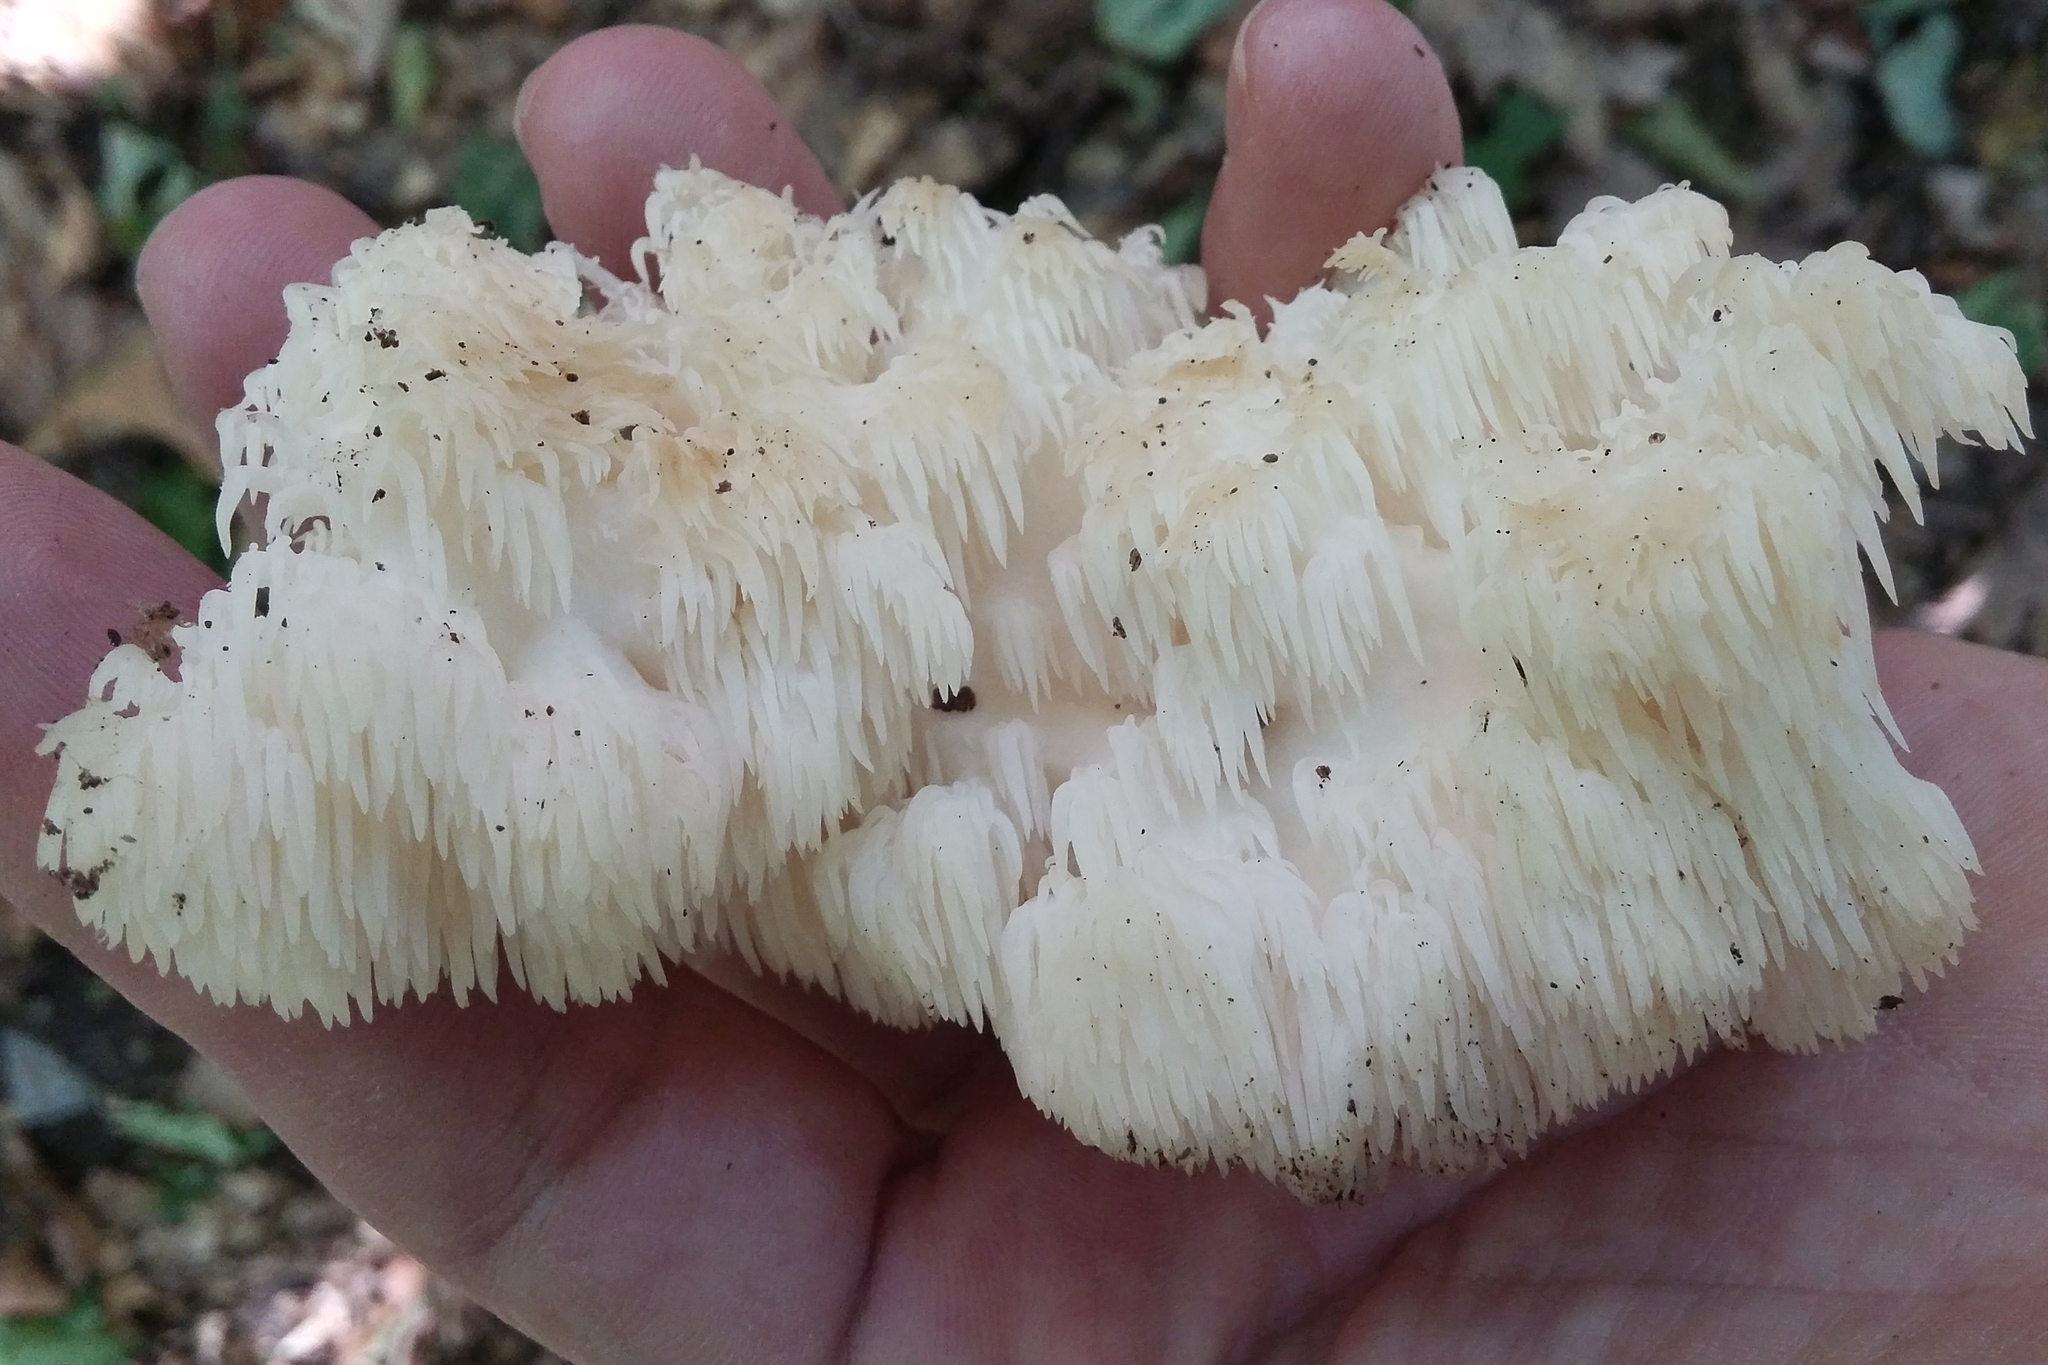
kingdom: Fungi
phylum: Basidiomycota
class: Agaricomycetes
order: Russulales
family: Hericiaceae
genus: Hericium
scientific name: Hericium americanum
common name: Bear's head tooth
